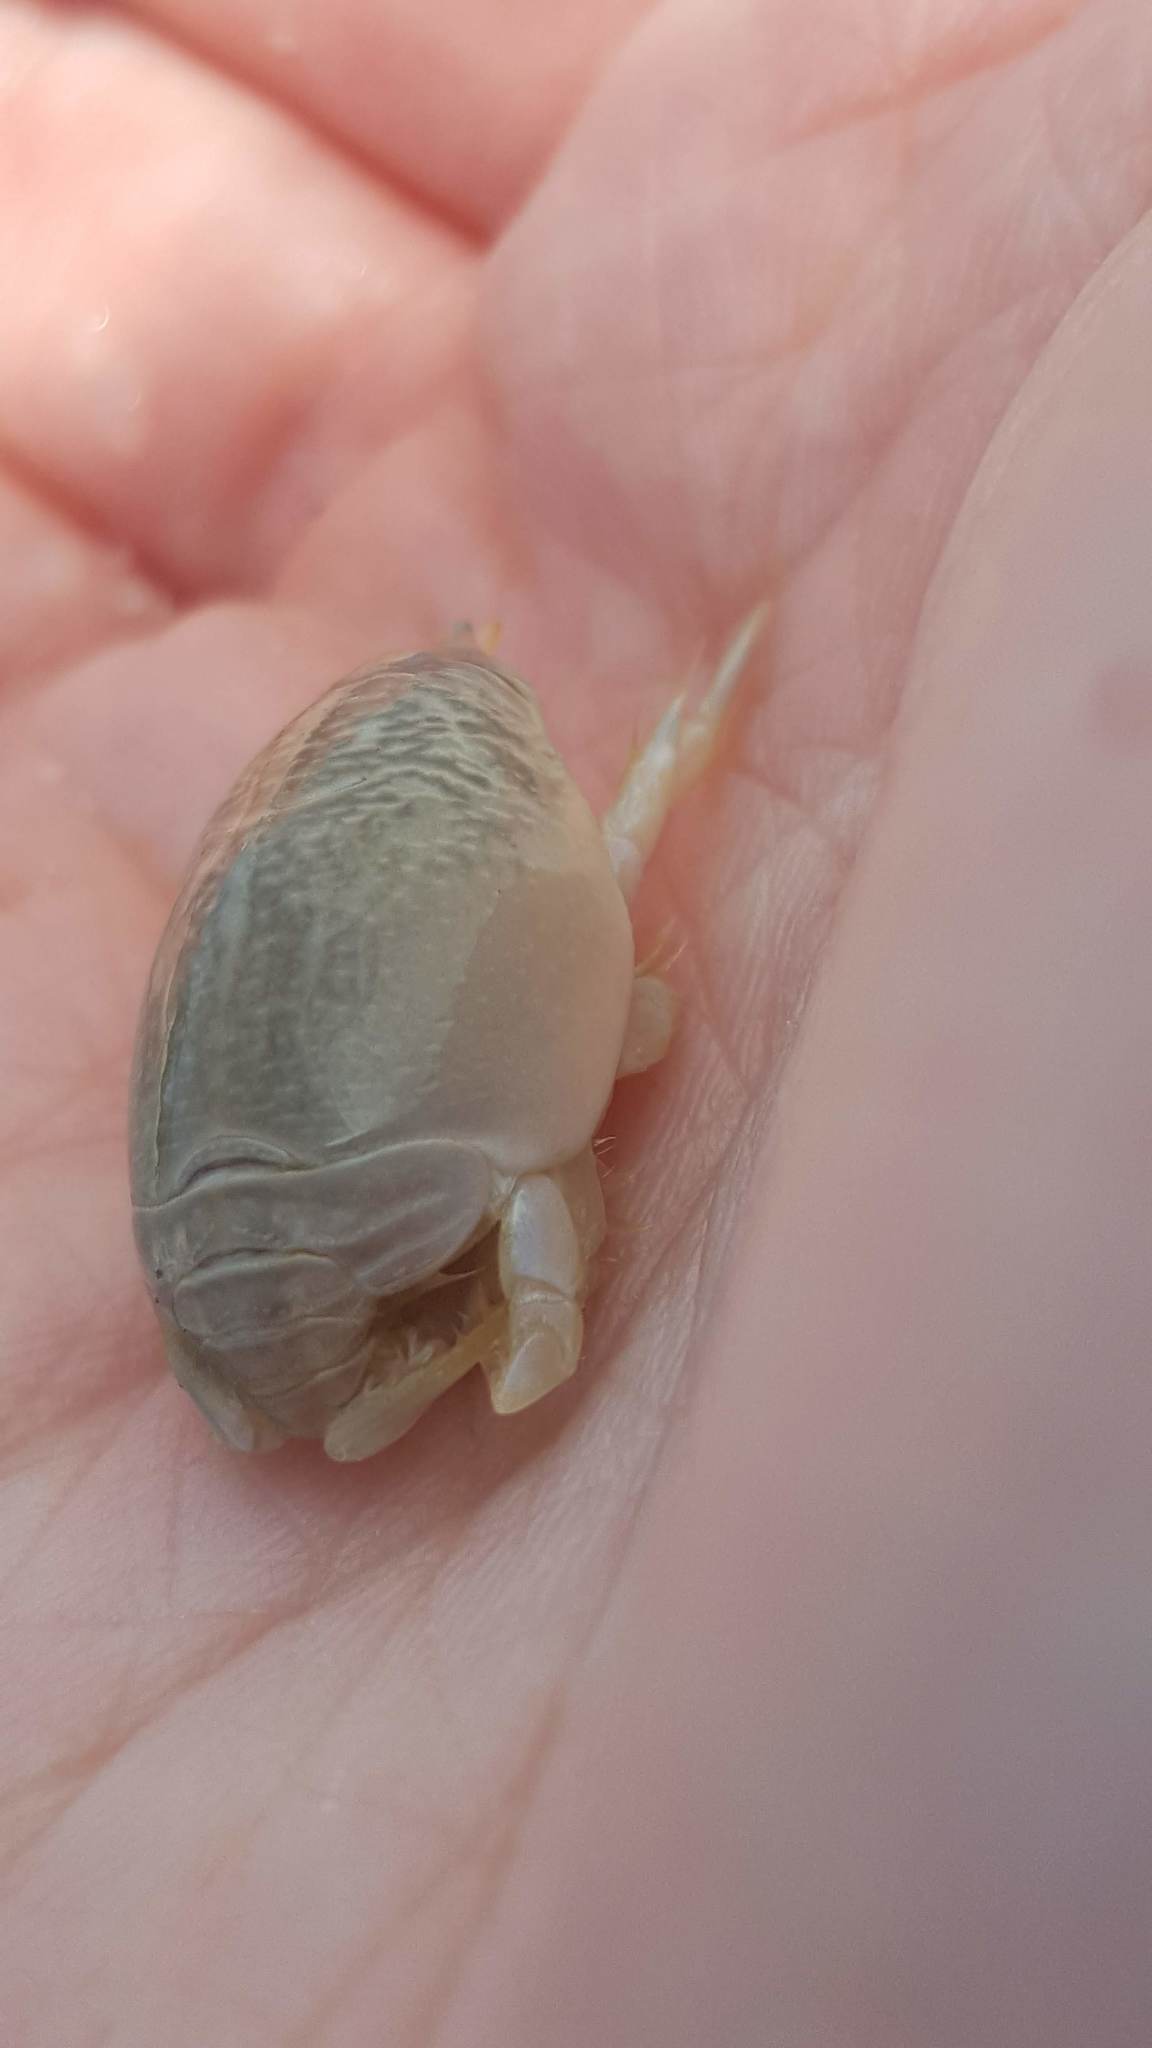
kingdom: Animalia
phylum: Arthropoda
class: Malacostraca
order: Decapoda
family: Hippidae
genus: Emerita
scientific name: Emerita talpoida
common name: Atlantic sand crab
